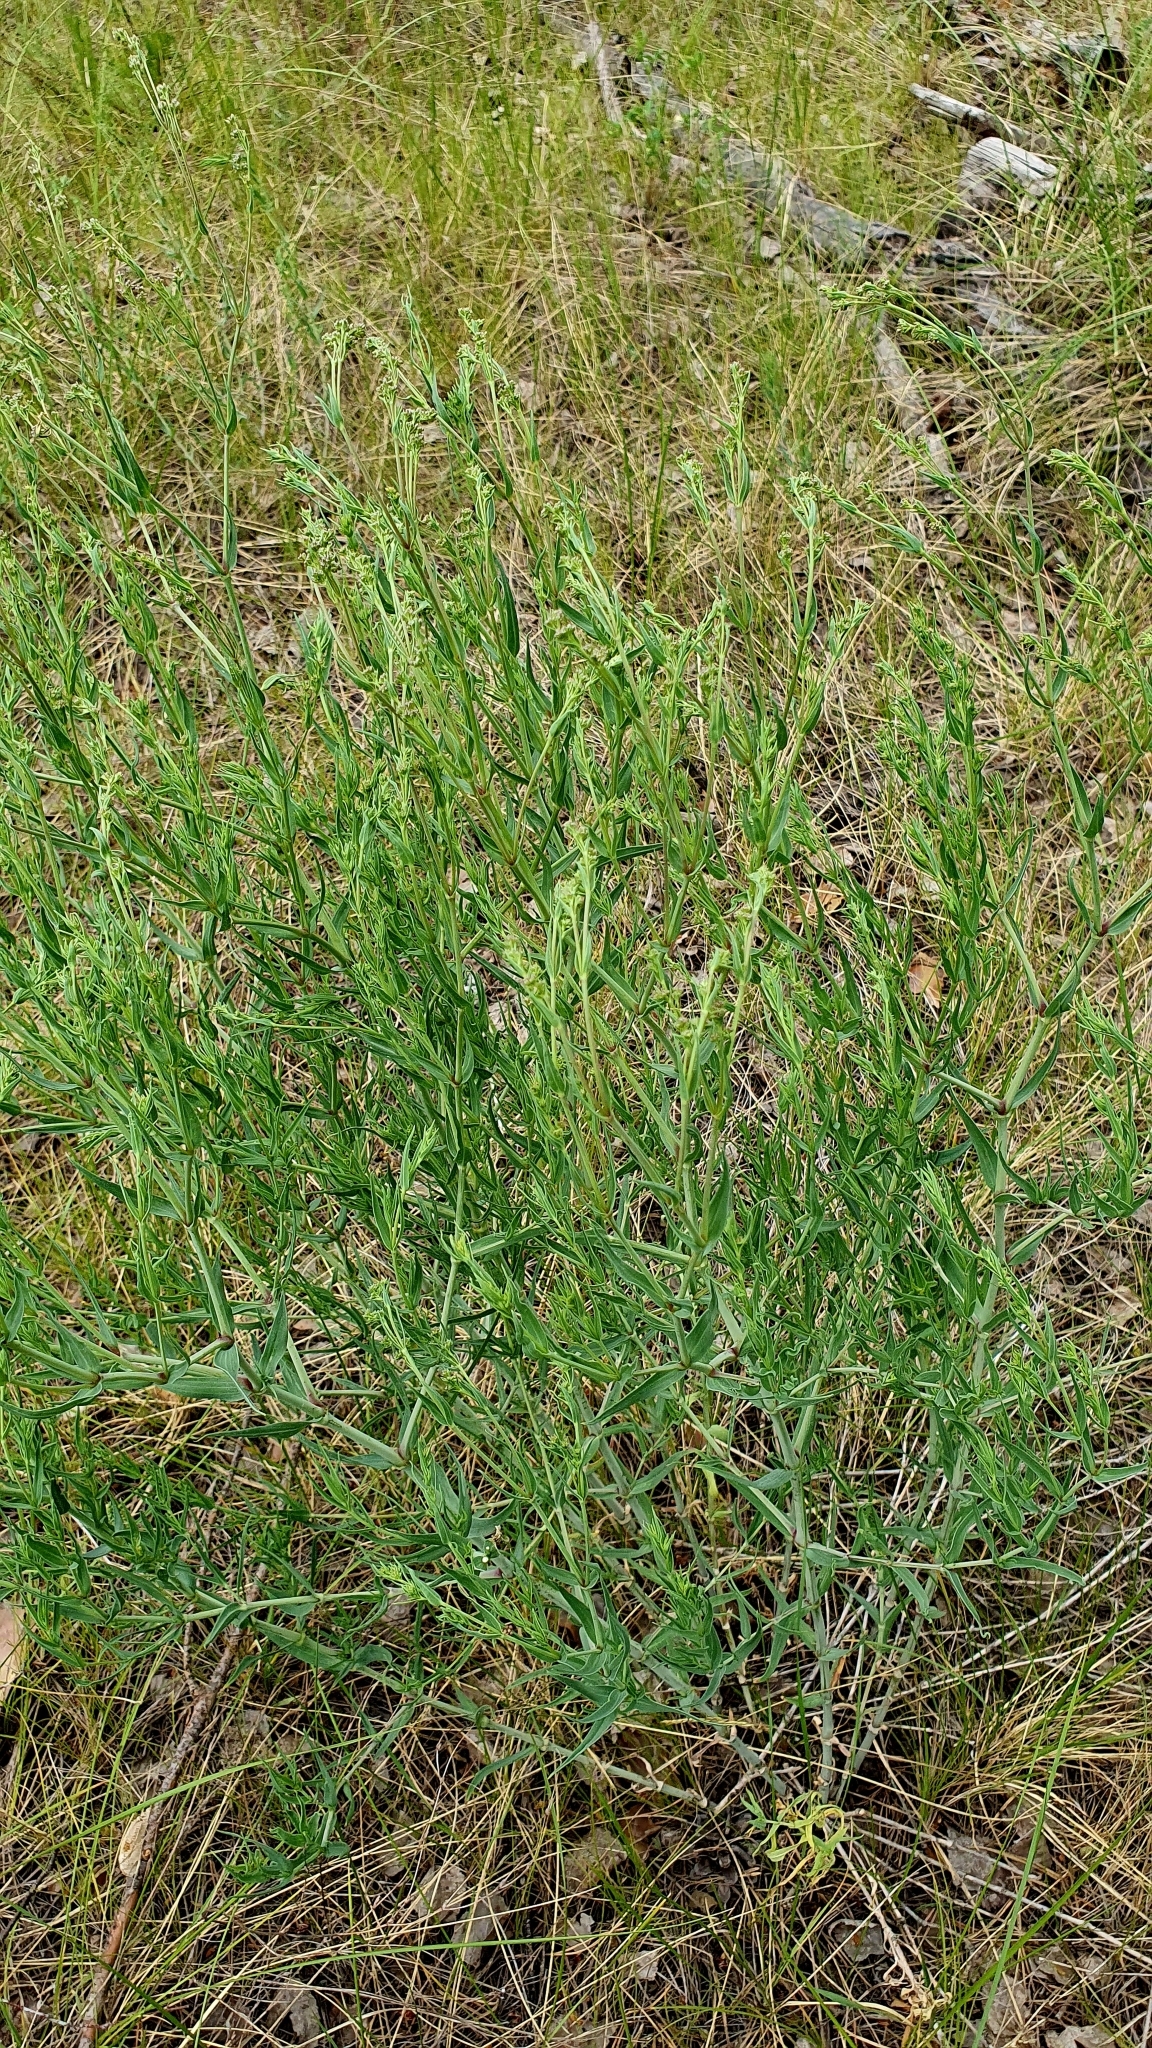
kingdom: Plantae
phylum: Tracheophyta
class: Magnoliopsida
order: Caryophyllales
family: Caryophyllaceae
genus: Gypsophila
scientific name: Gypsophila paniculata
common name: Baby's-breath
